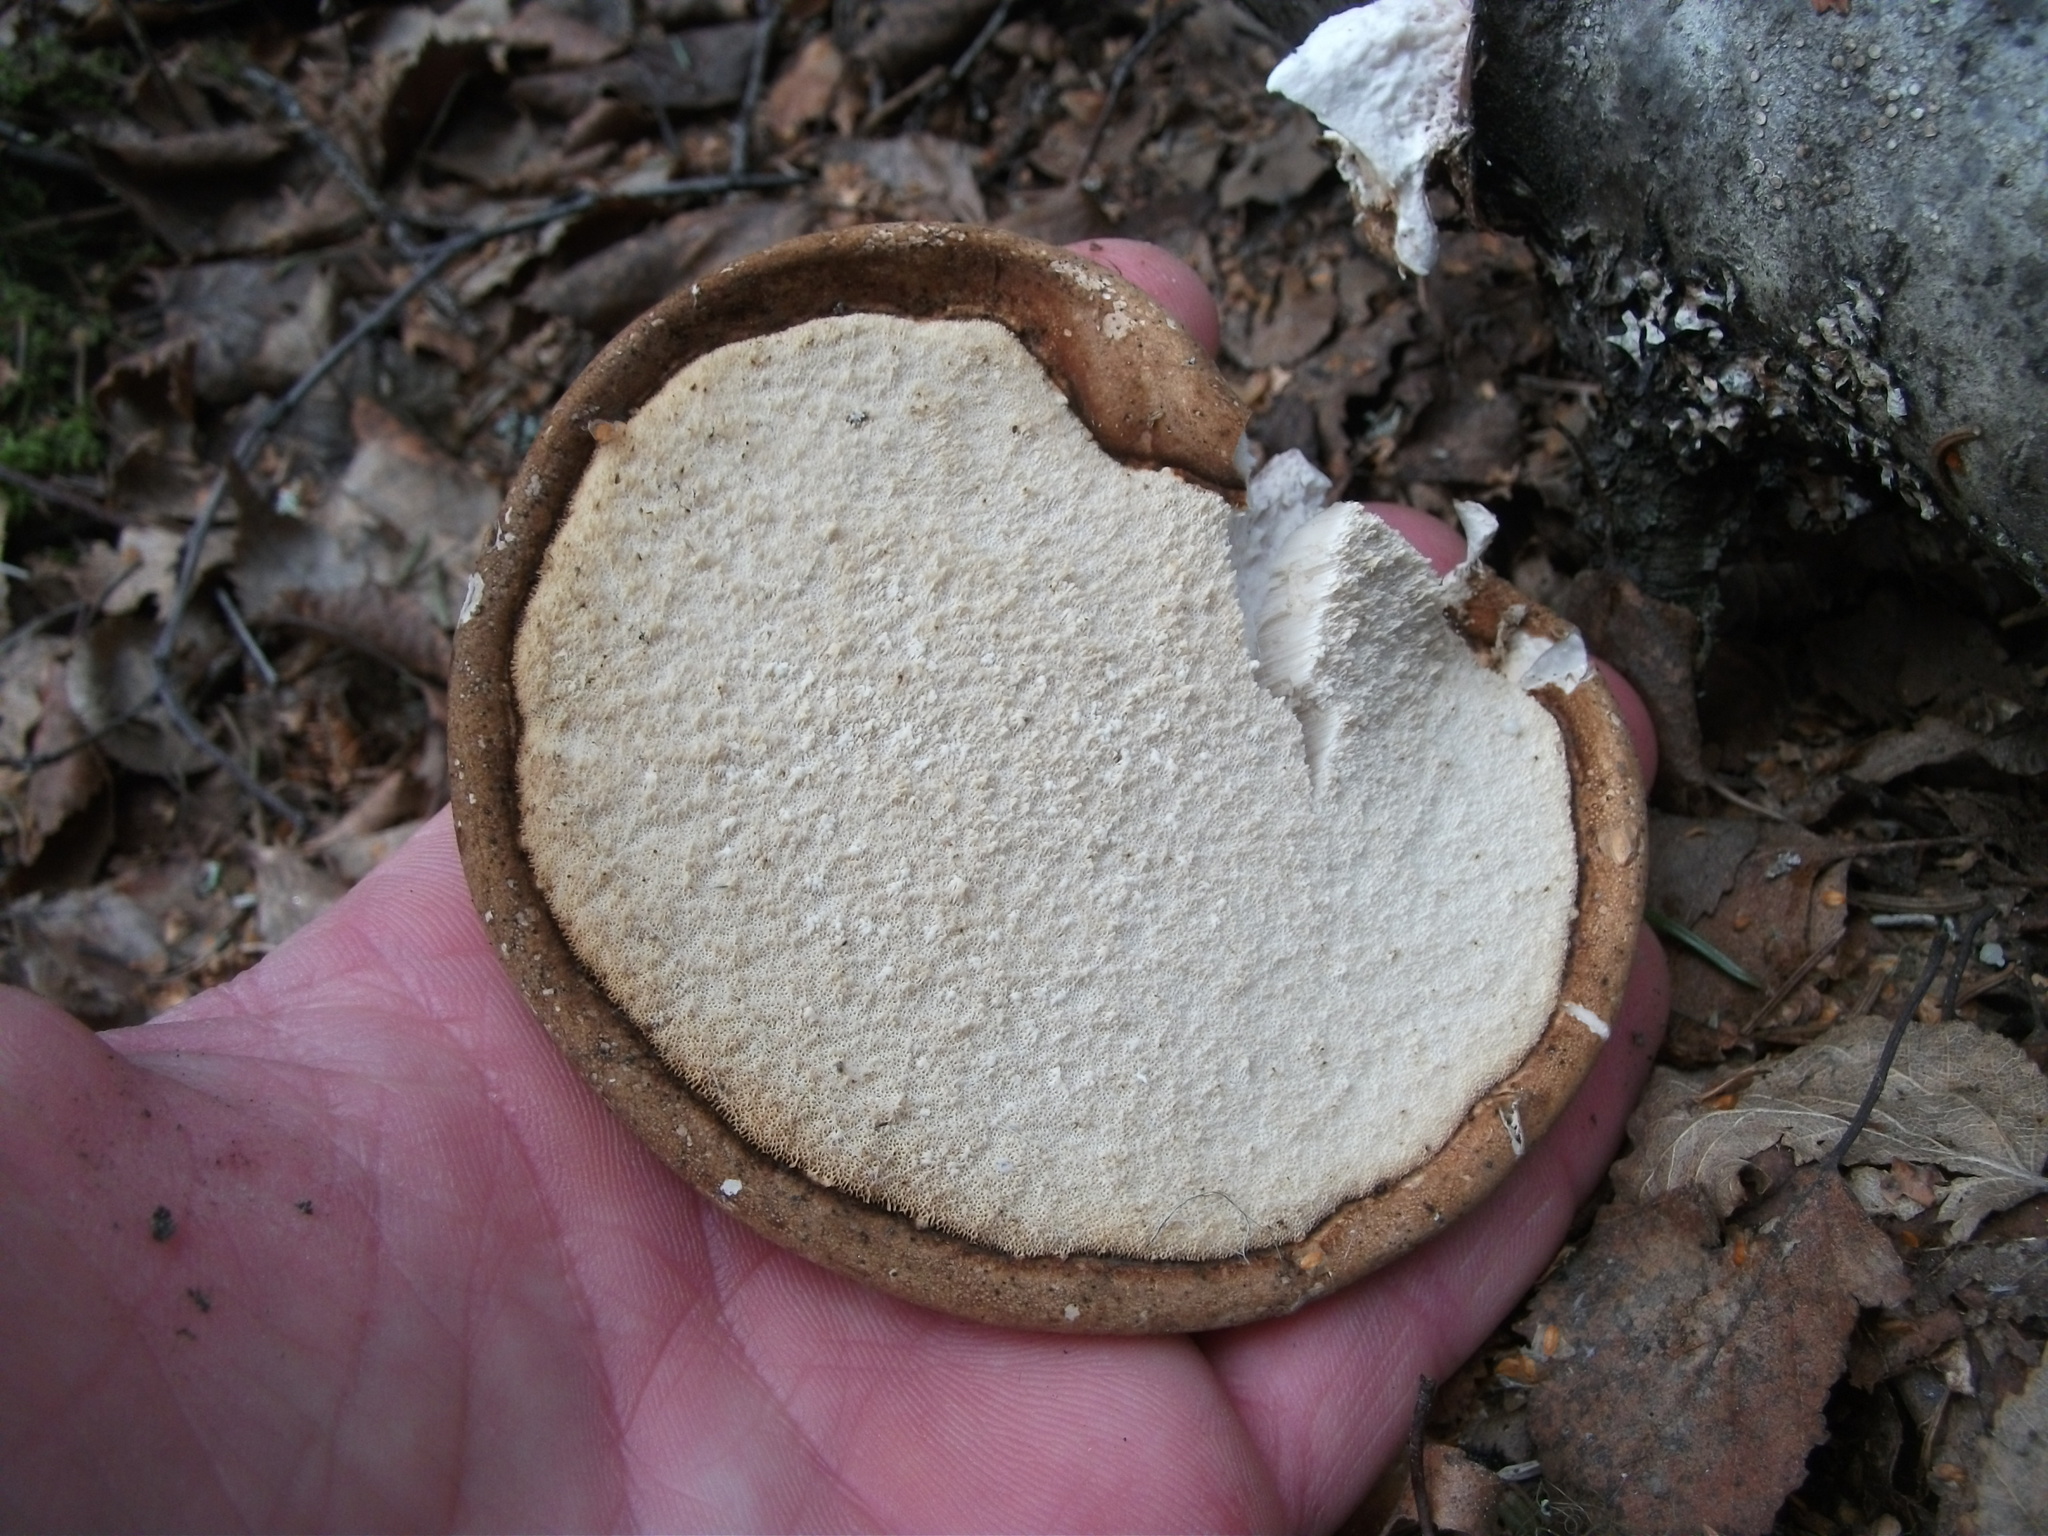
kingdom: Fungi
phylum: Basidiomycota
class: Agaricomycetes
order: Polyporales
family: Fomitopsidaceae
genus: Fomitopsis
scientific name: Fomitopsis betulina
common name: Birch polypore
